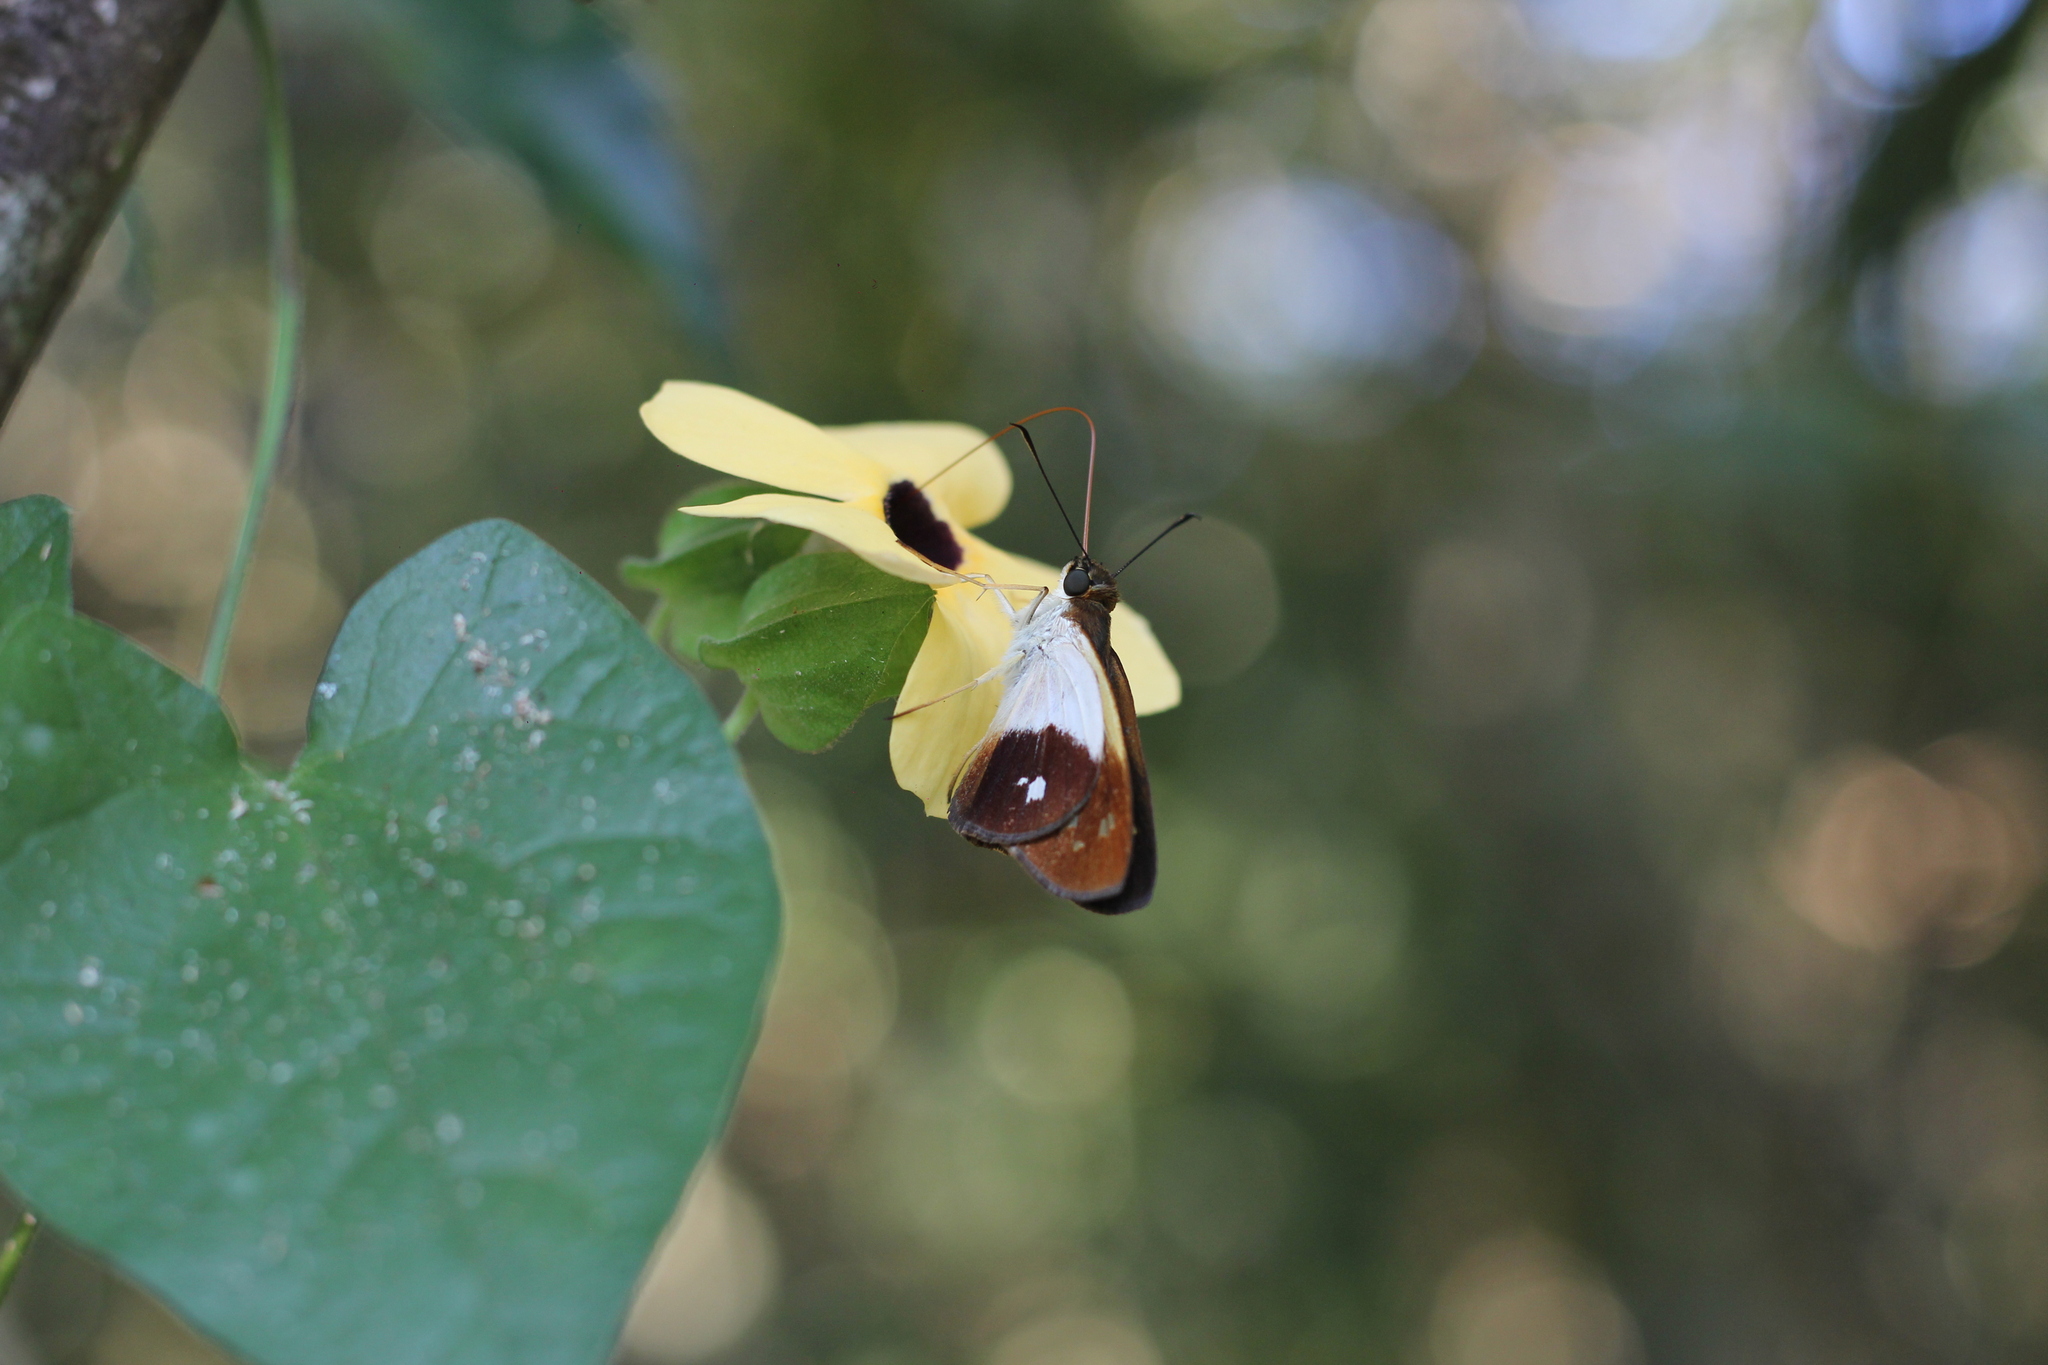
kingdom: Animalia
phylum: Arthropoda
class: Insecta
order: Lepidoptera
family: Hesperiidae
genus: Calpodes
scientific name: Calpodes esperi
